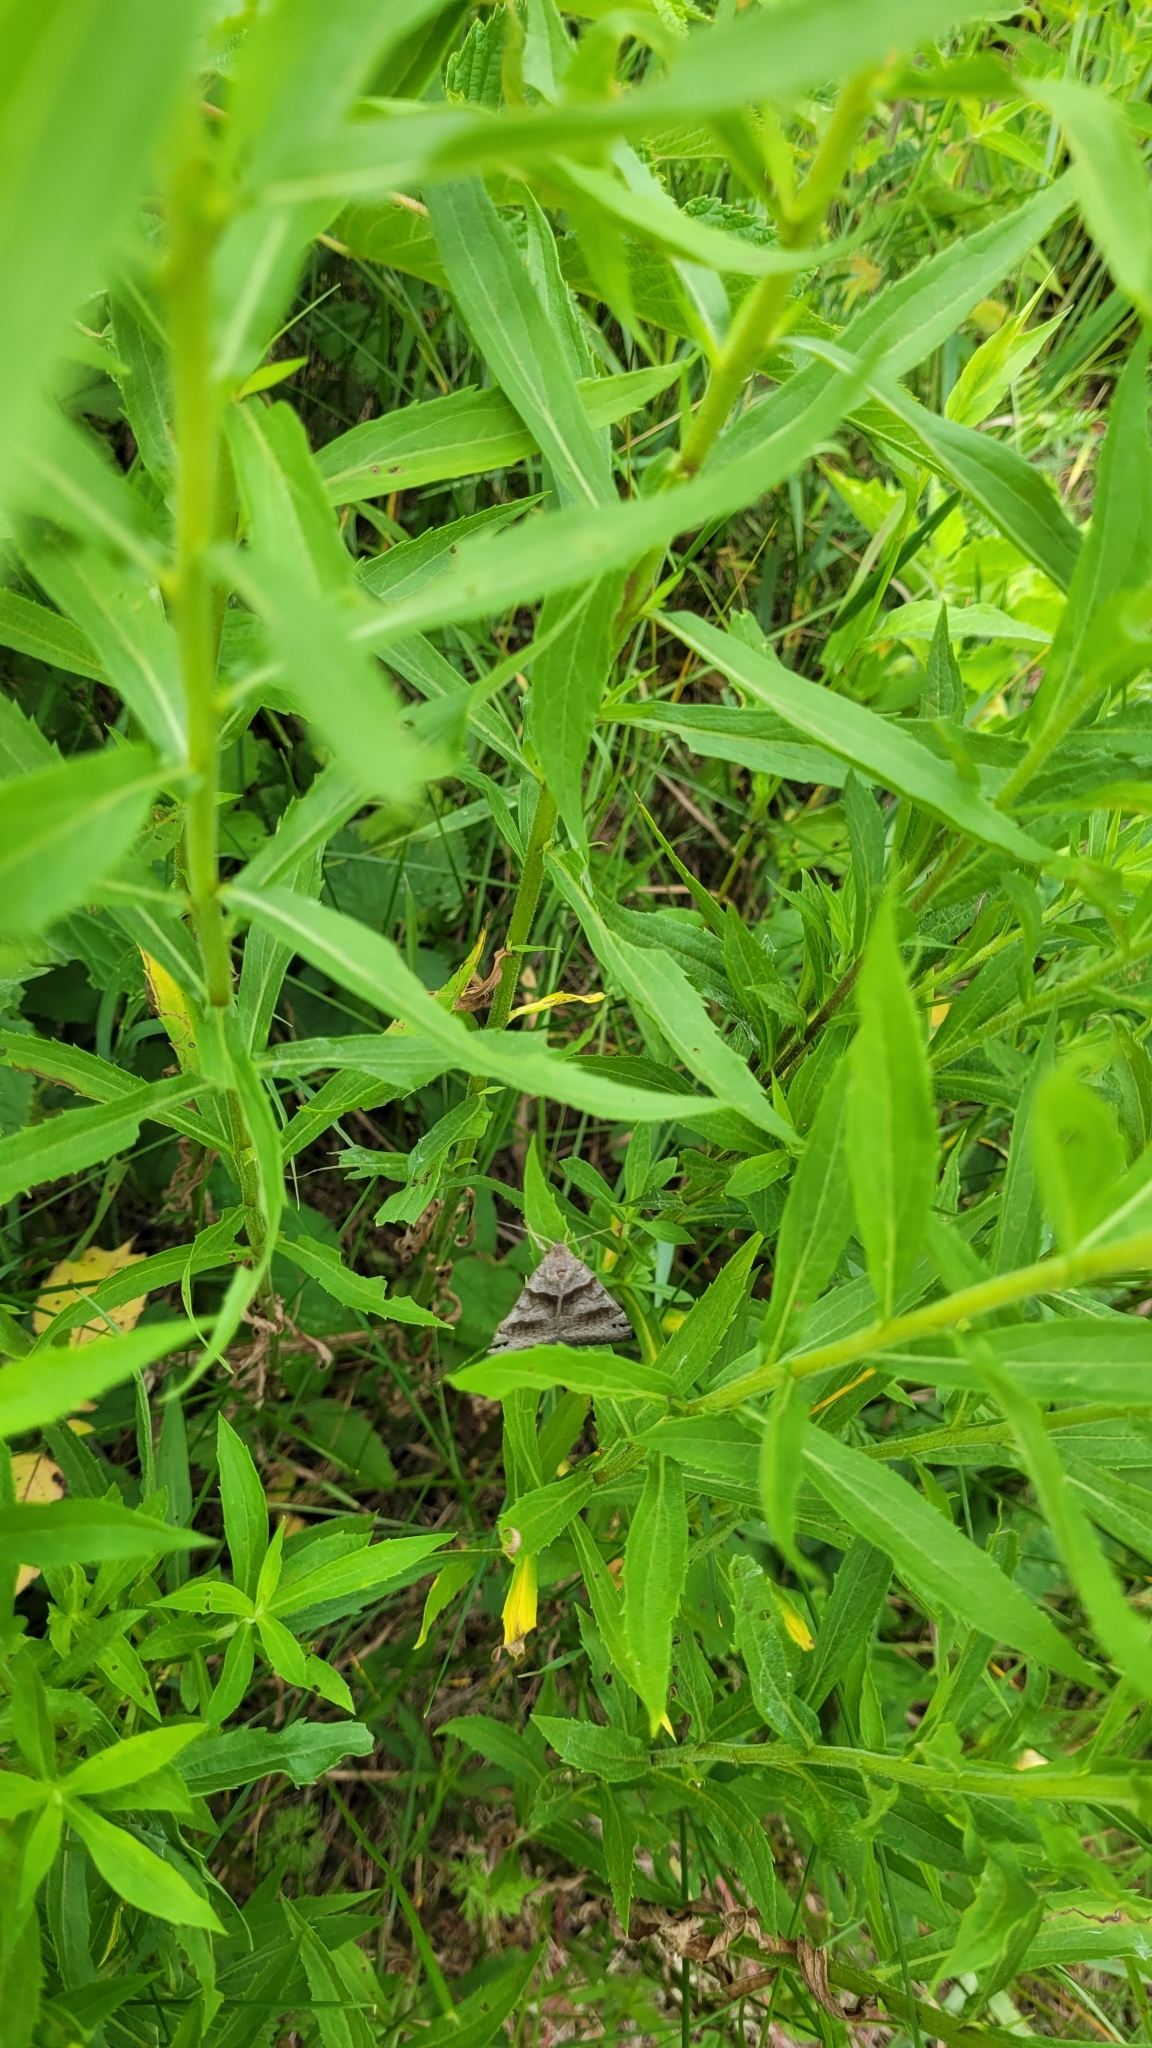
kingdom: Animalia
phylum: Arthropoda
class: Insecta
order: Lepidoptera
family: Erebidae
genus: Caenurgina
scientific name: Caenurgina erechtea
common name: Forage looper moth
